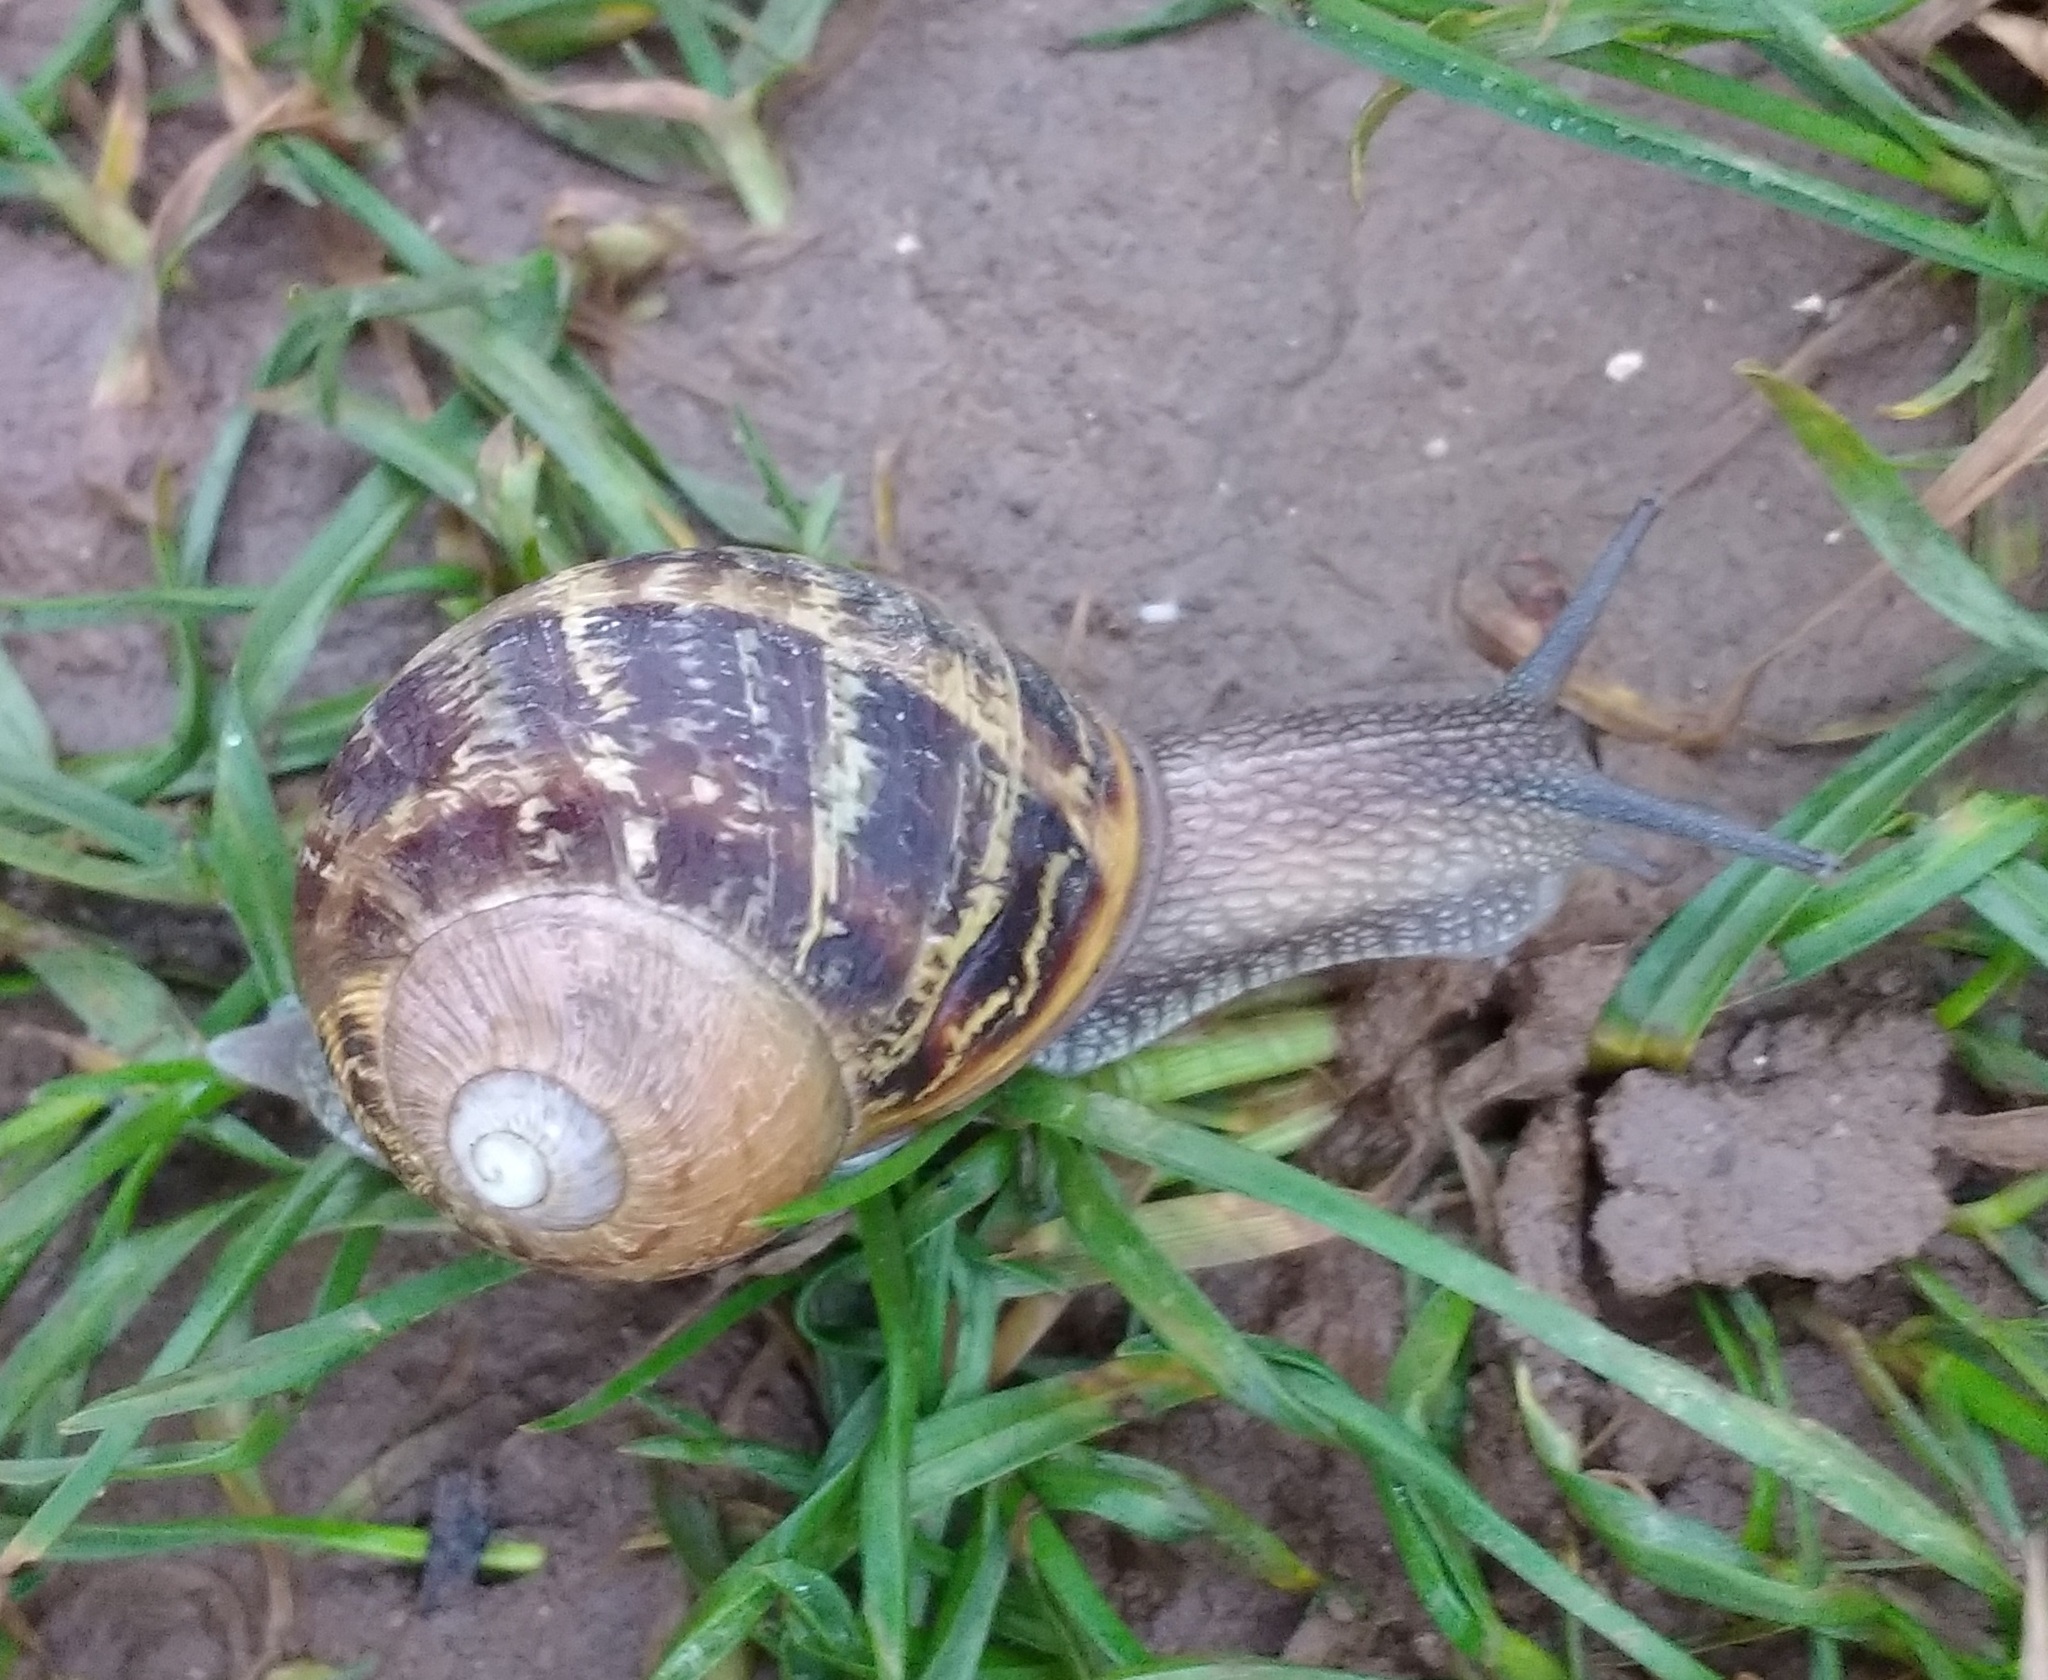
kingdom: Animalia
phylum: Mollusca
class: Gastropoda
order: Stylommatophora
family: Helicidae
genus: Cornu
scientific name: Cornu aspersum
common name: Brown garden snail
